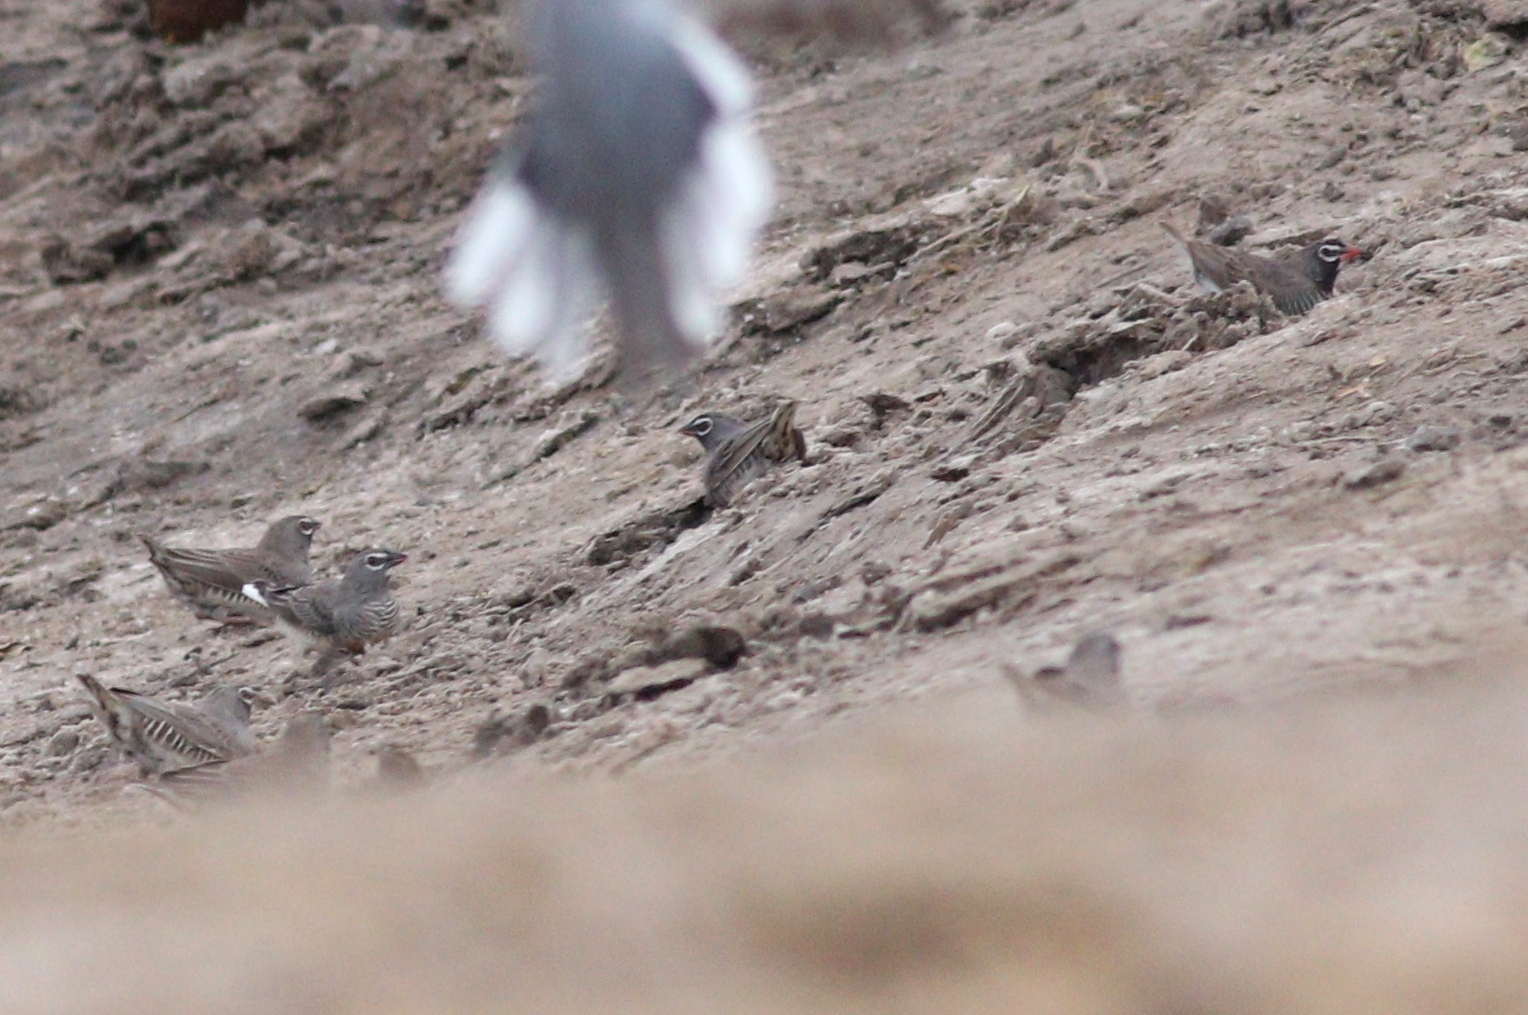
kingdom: Animalia
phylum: Chordata
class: Aves
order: Passeriformes
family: Estrildidae
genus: Ortygospiza
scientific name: Ortygospiza atricollis
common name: Quailfinch
